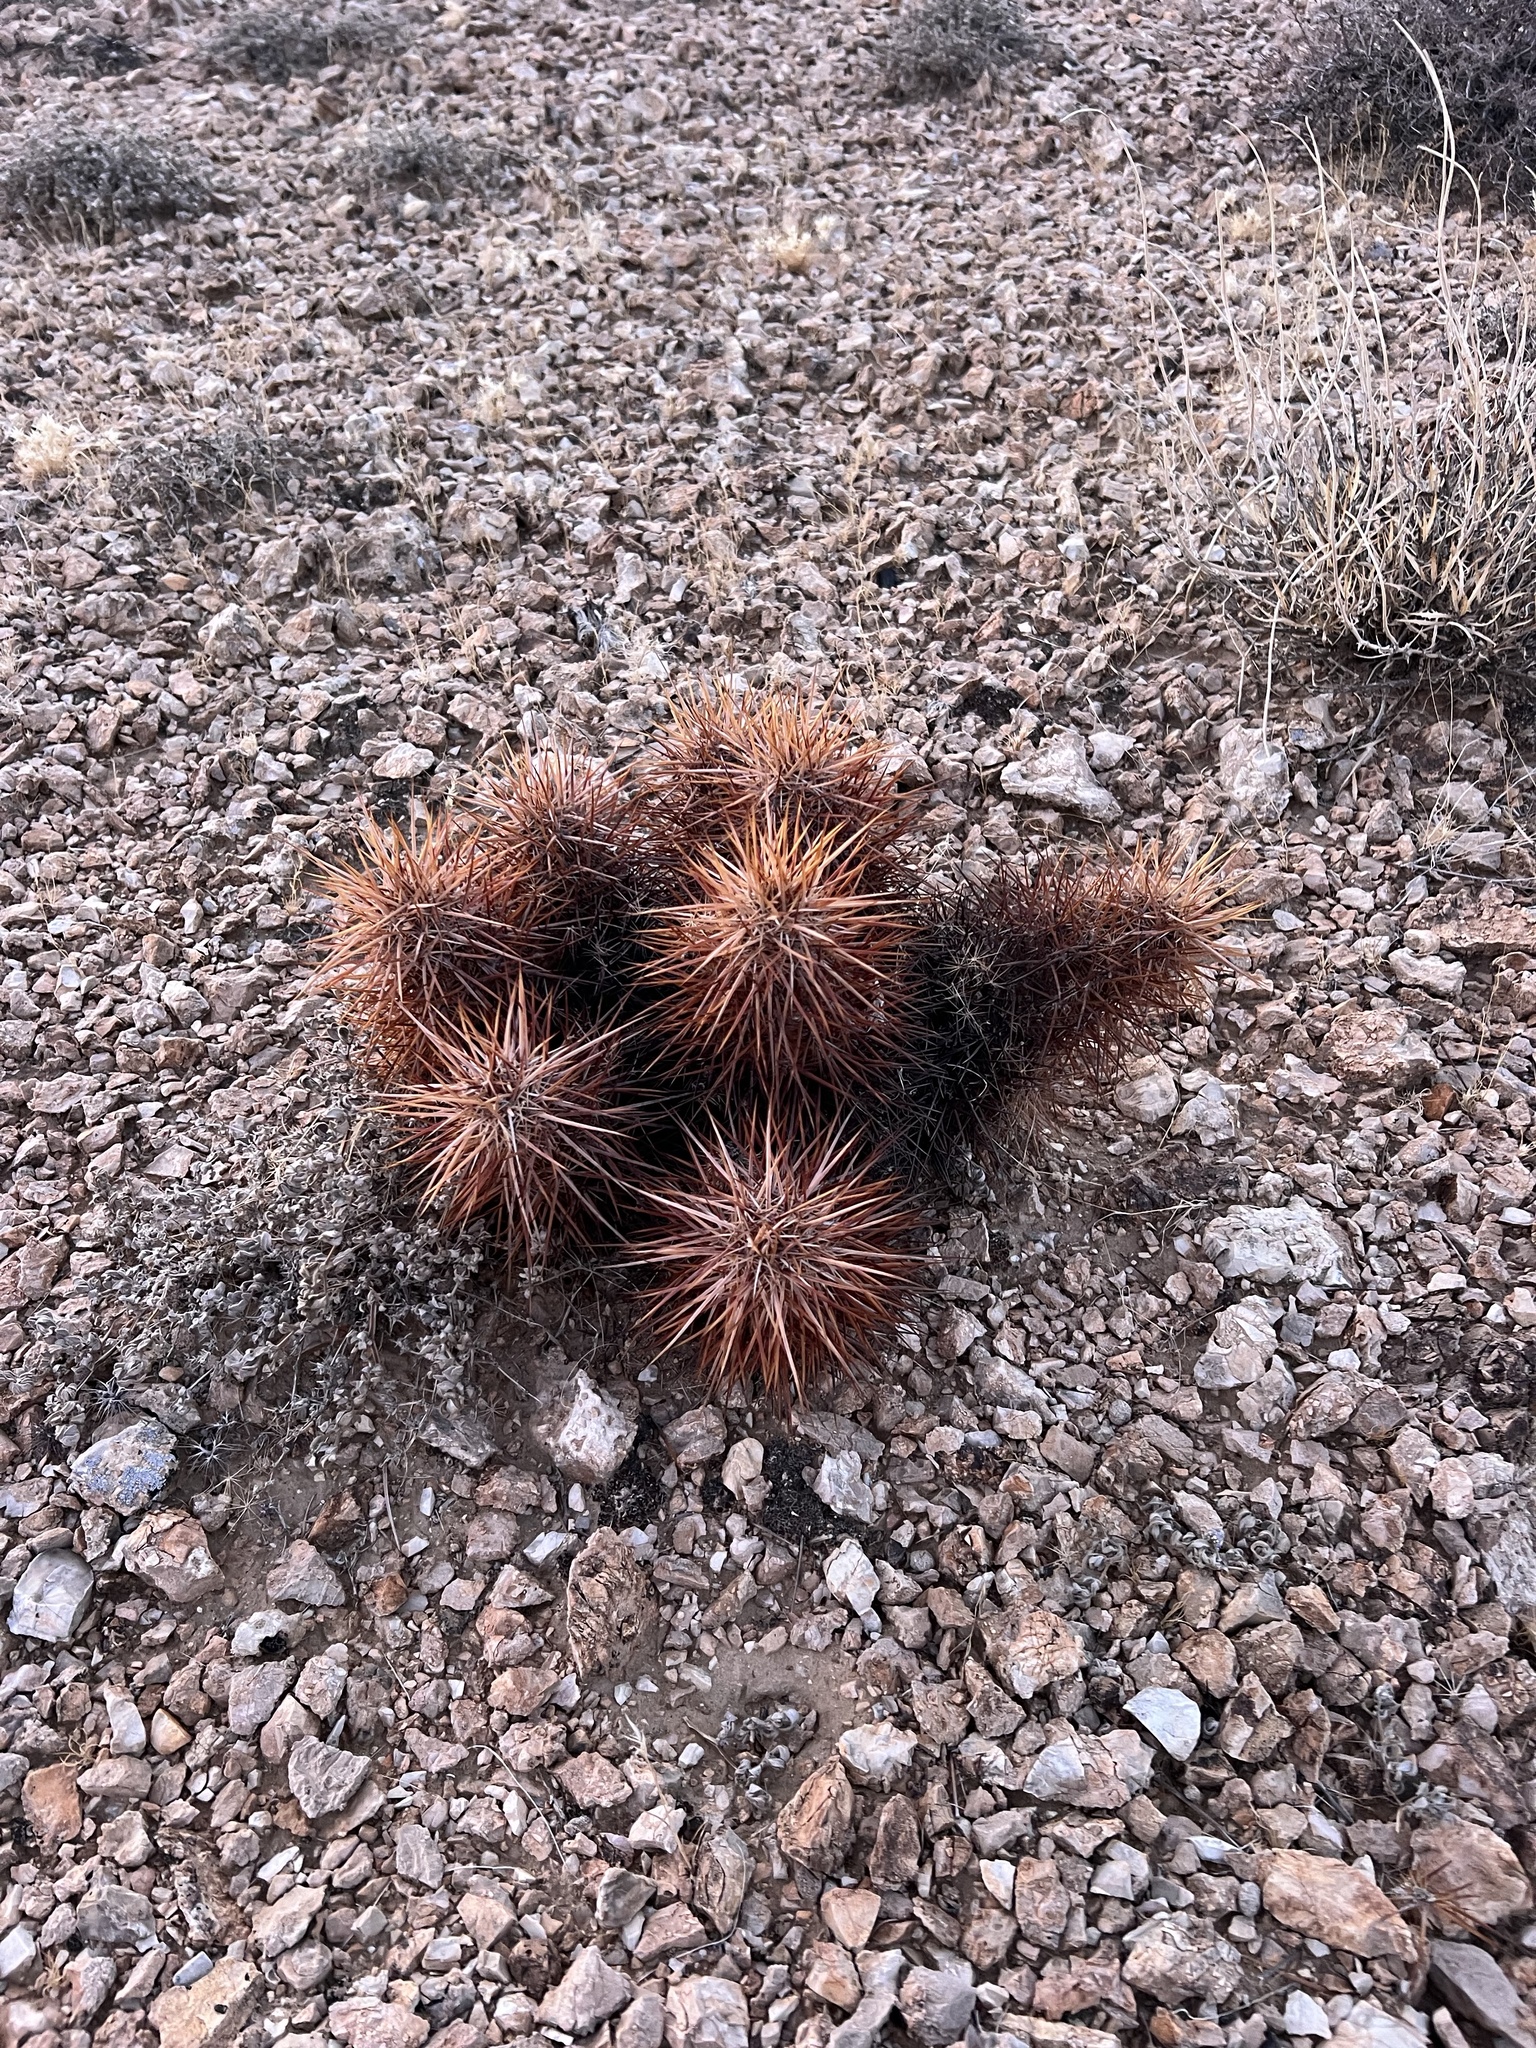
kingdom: Plantae
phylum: Tracheophyta
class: Magnoliopsida
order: Caryophyllales
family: Cactaceae
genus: Echinocereus
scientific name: Echinocereus engelmannii
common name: Engelmann's hedgehog cactus
